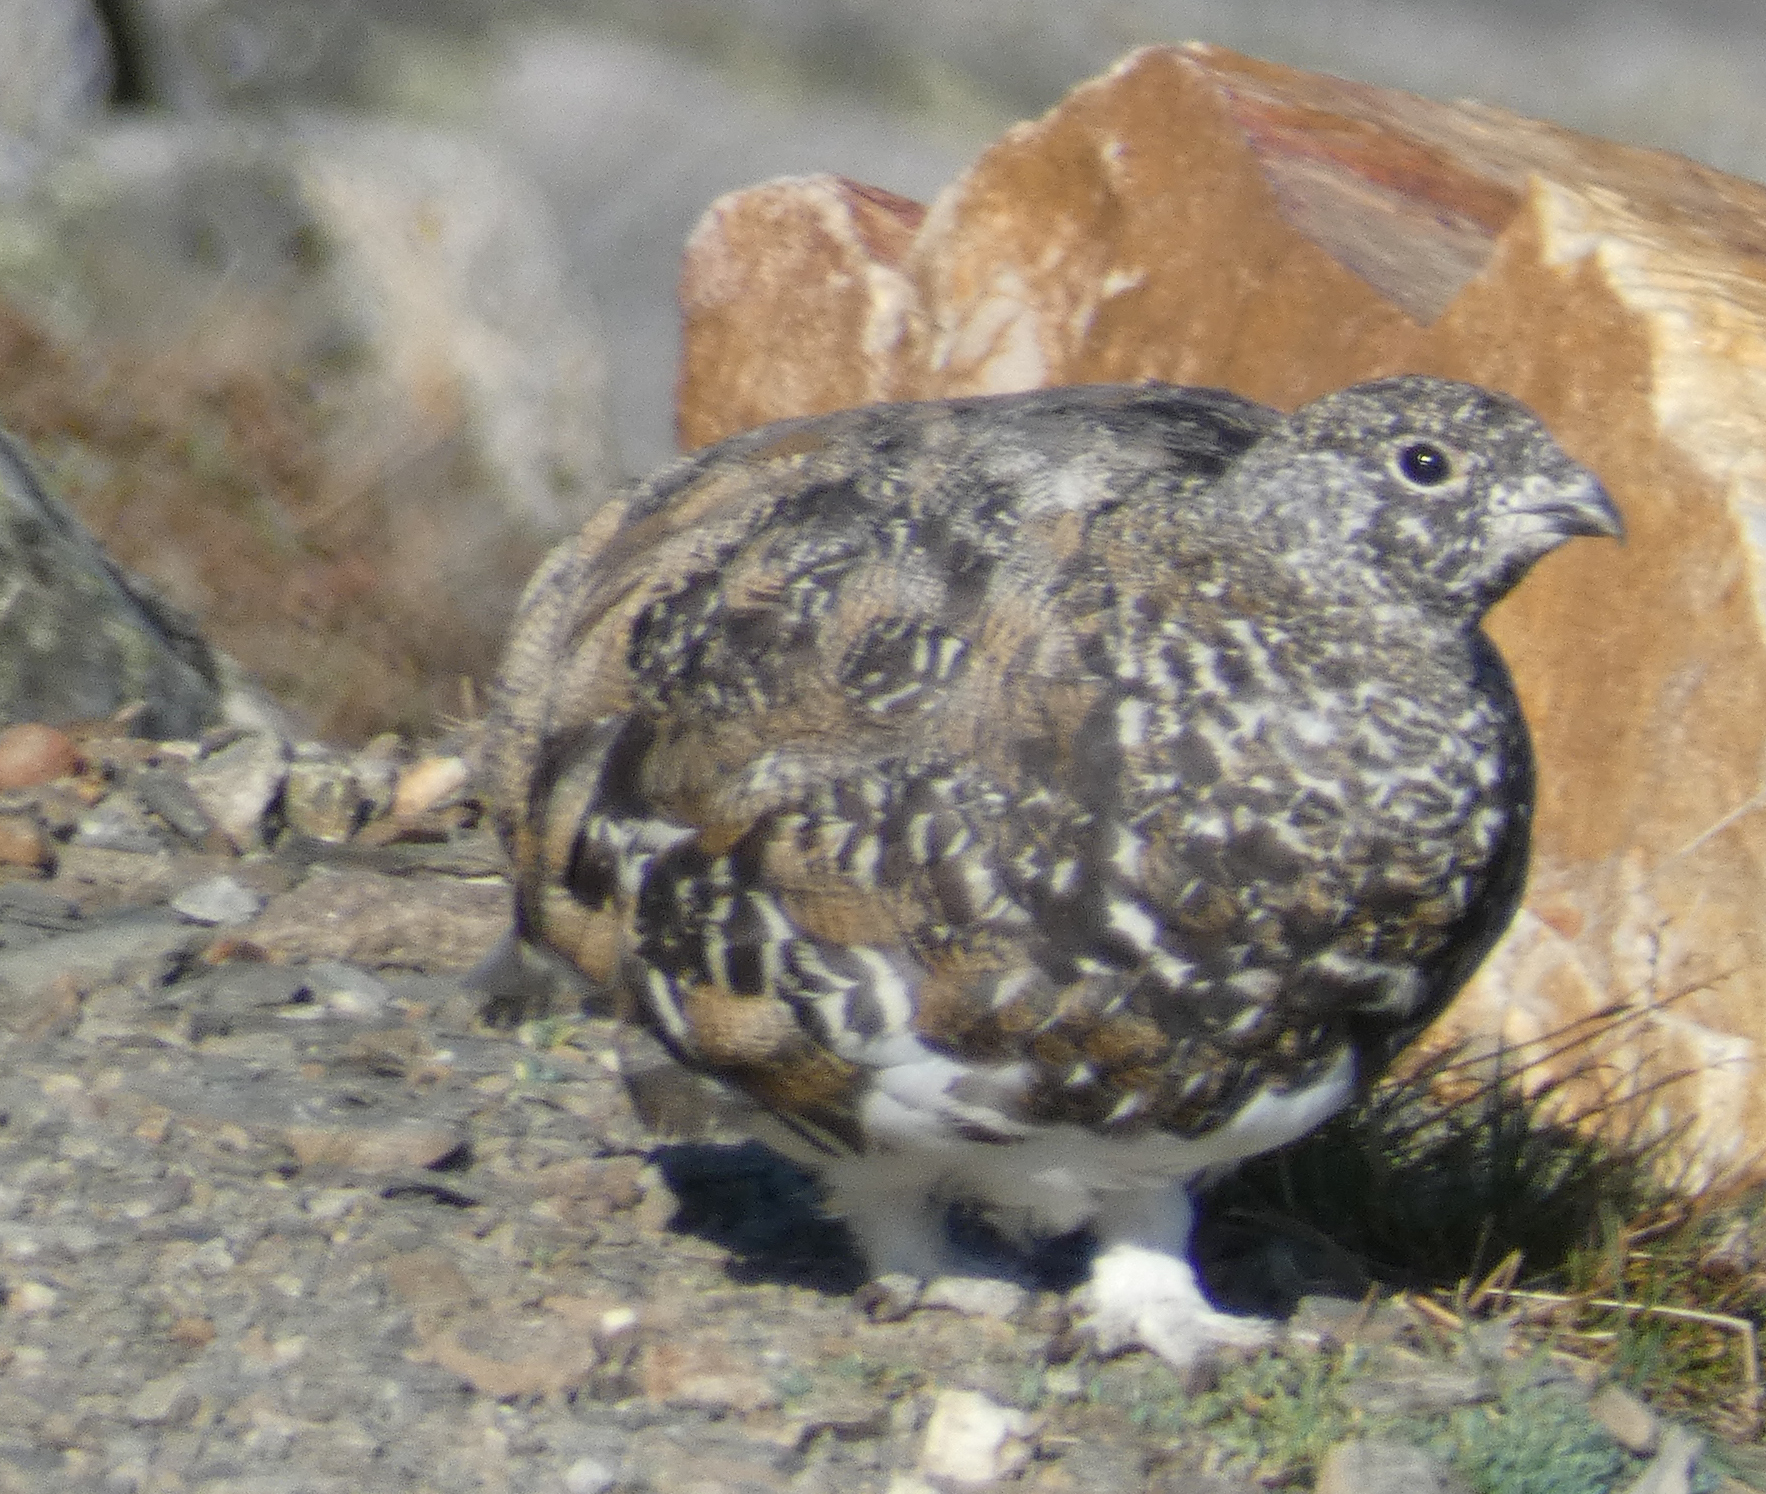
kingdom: Animalia
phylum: Chordata
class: Aves
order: Galliformes
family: Phasianidae
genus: Lagopus
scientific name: Lagopus leucura
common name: White-tailed ptarmigan
